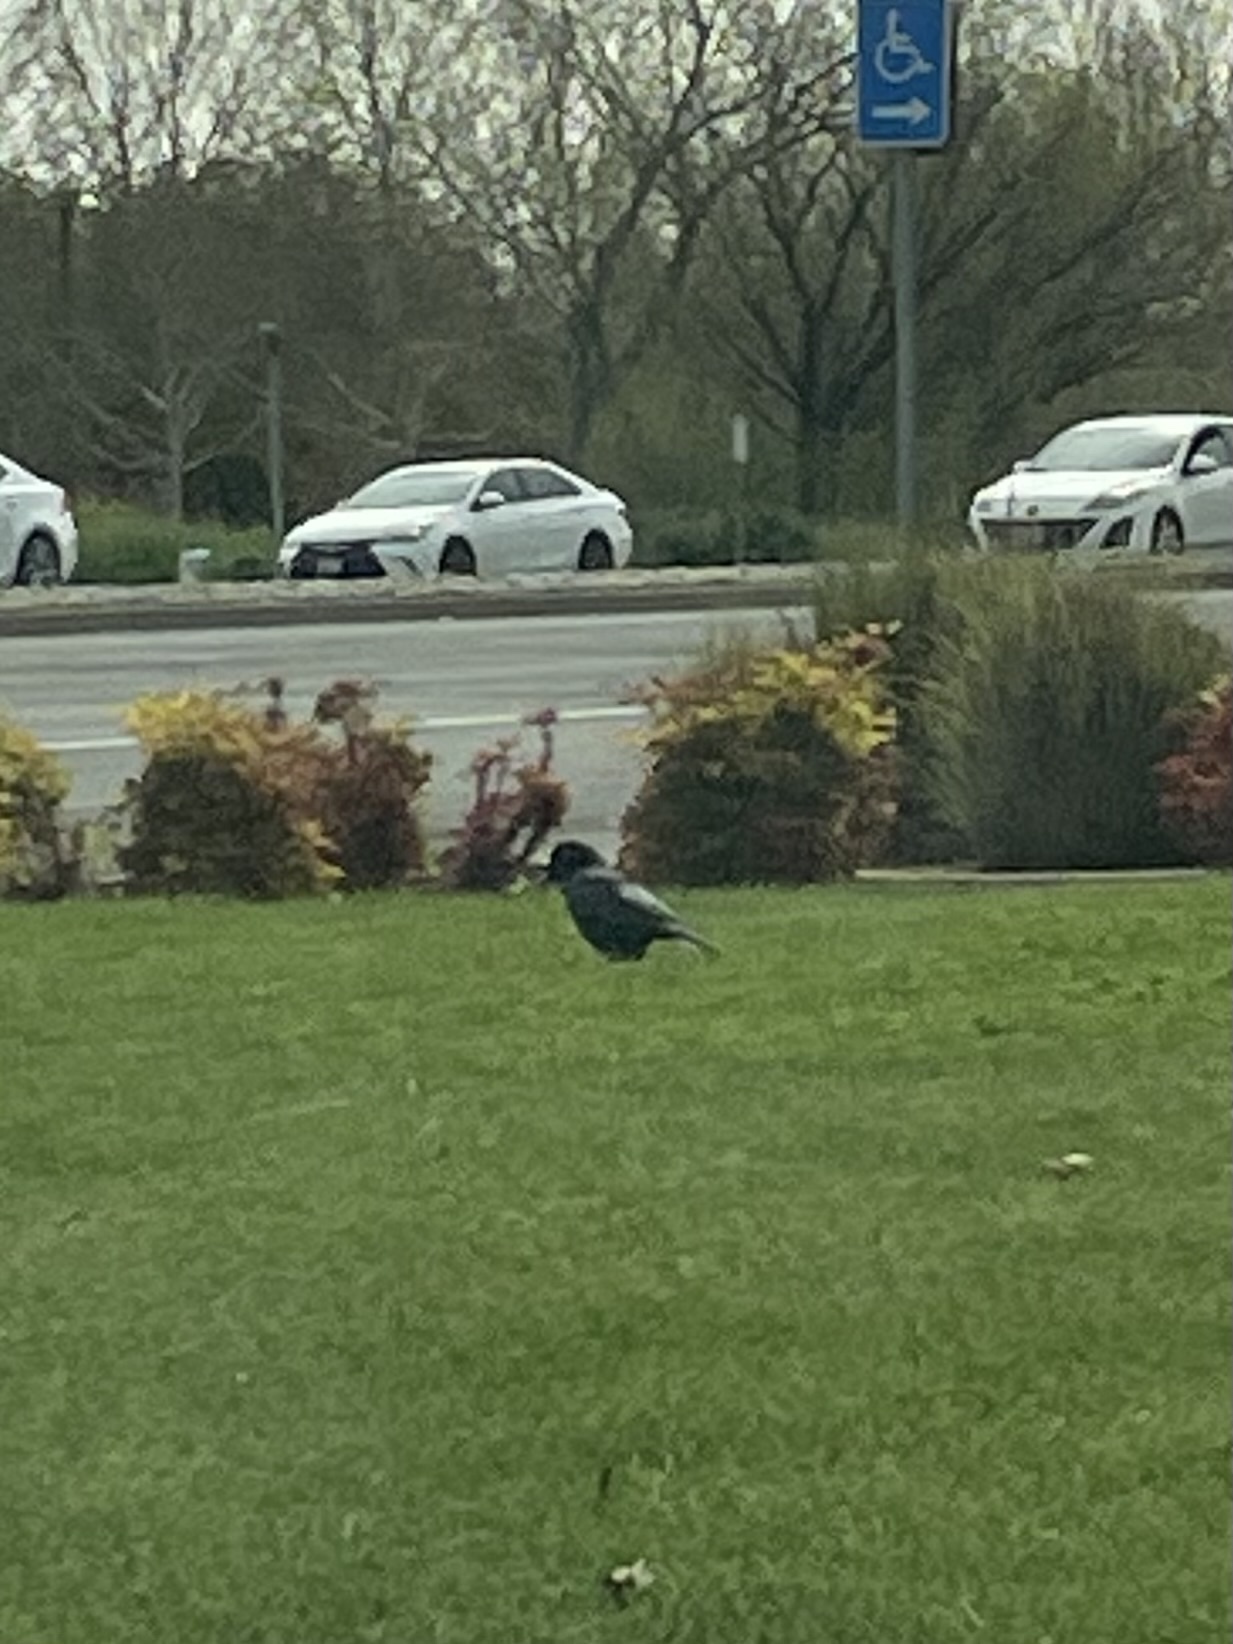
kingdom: Animalia
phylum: Chordata
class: Aves
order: Passeriformes
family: Corvidae
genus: Corvus
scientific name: Corvus brachyrhynchos
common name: American crow
